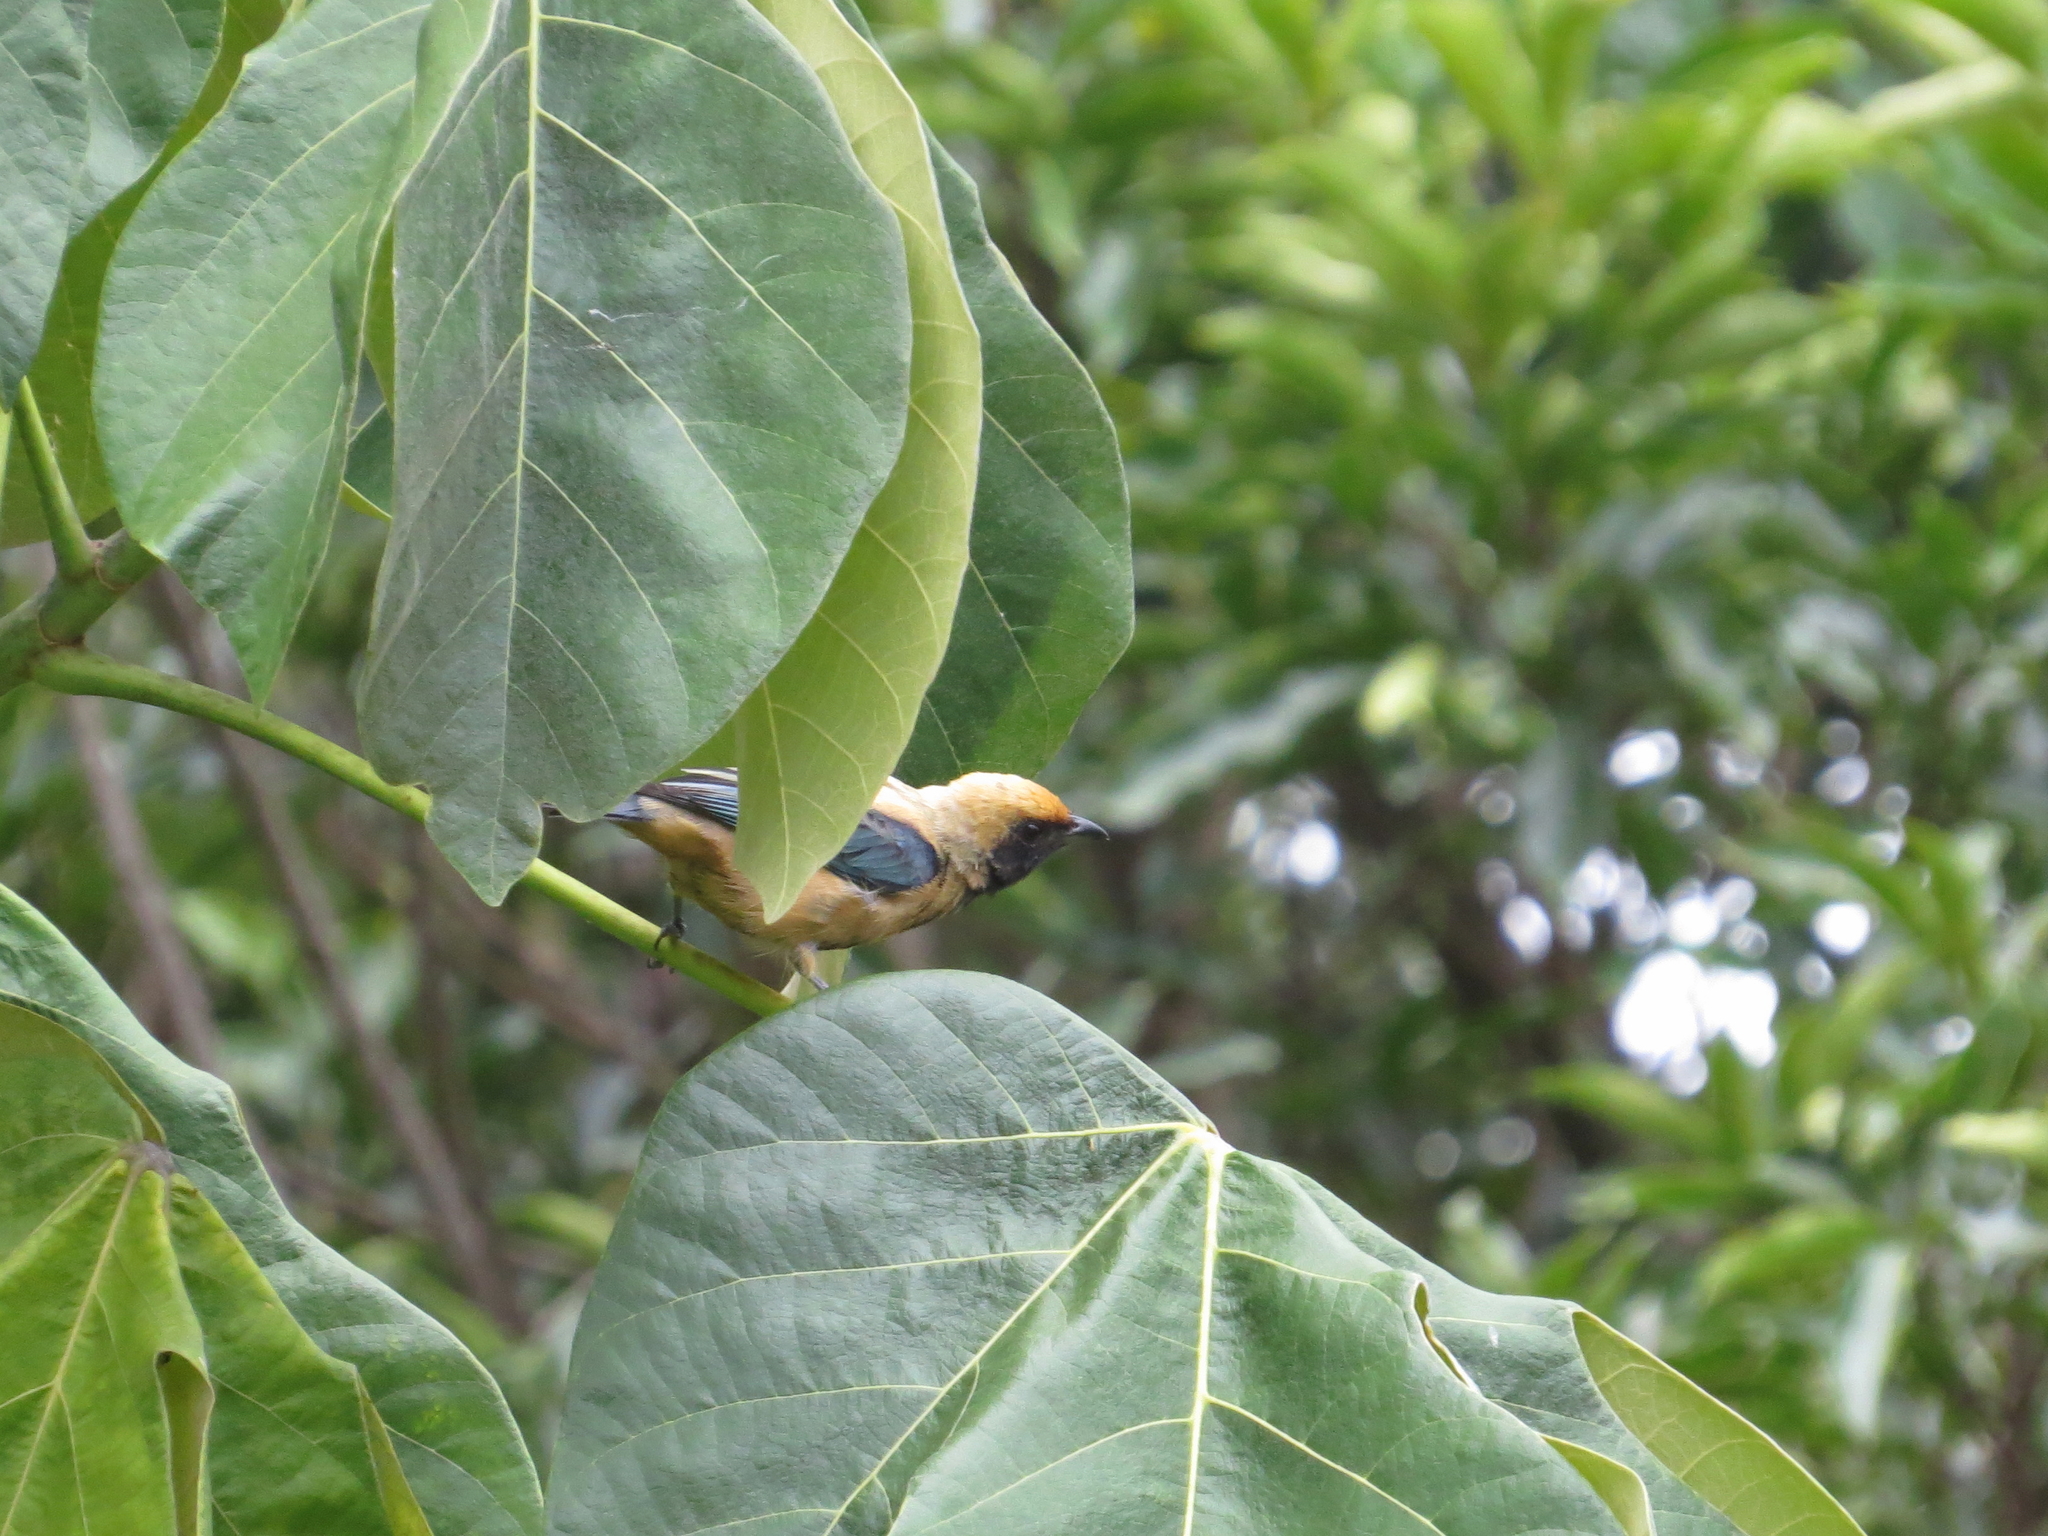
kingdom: Animalia
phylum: Chordata
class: Aves
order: Passeriformes
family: Thraupidae
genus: Stilpnia
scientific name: Stilpnia cayana
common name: Burnished-buff tanager
